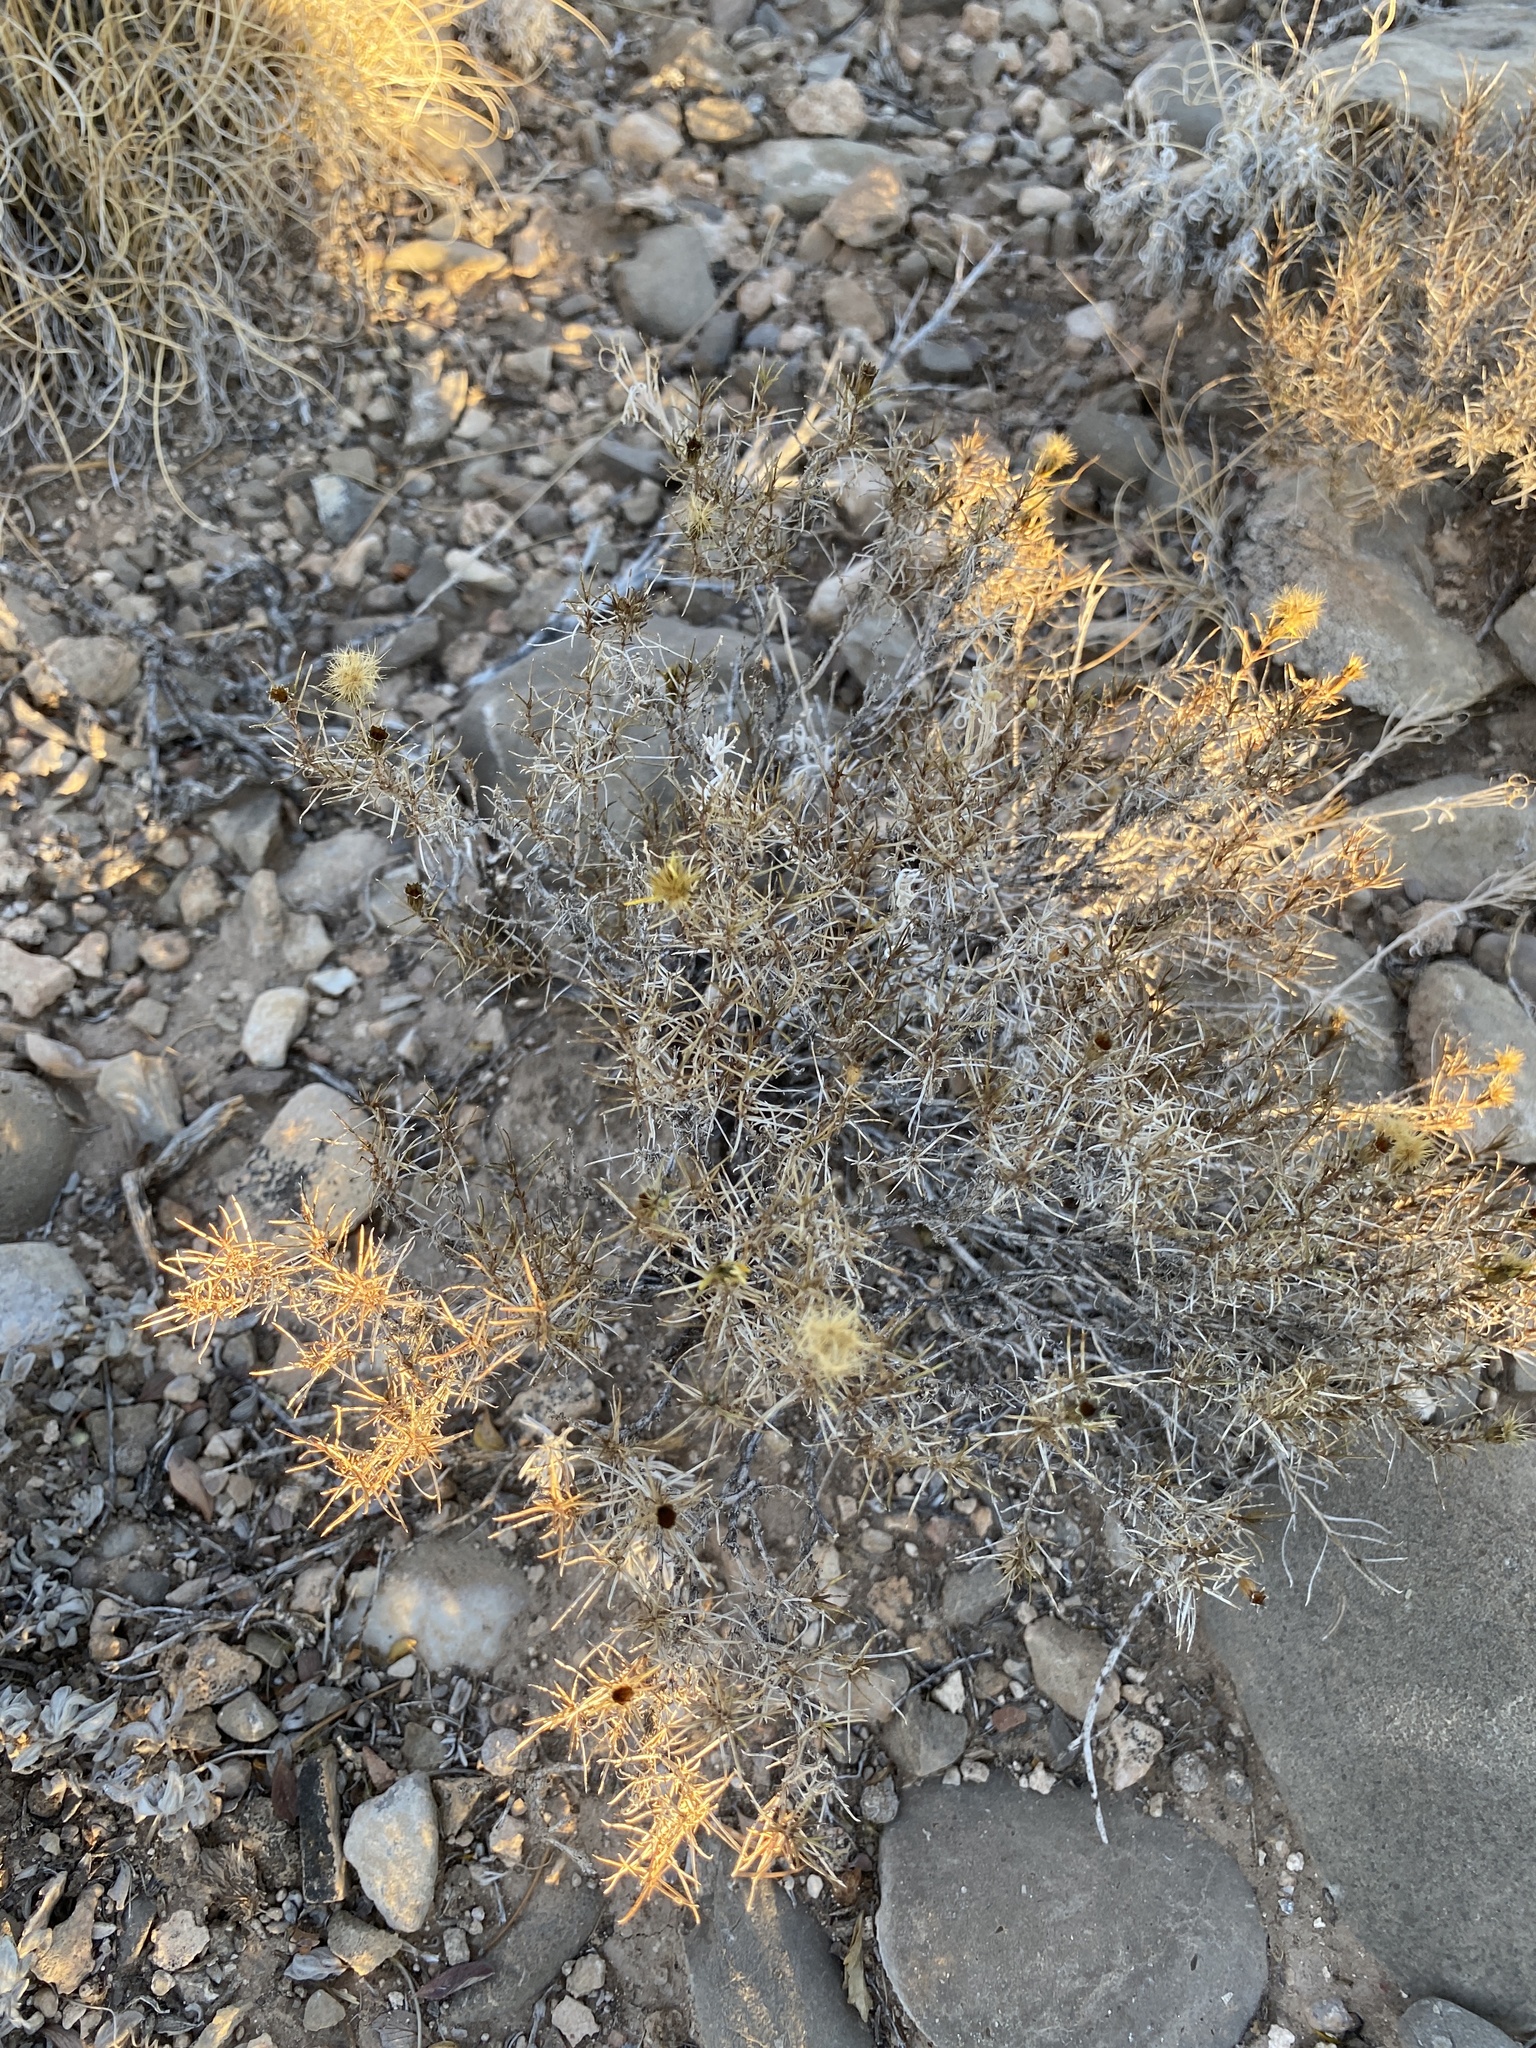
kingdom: Plantae
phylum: Tracheophyta
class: Magnoliopsida
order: Asterales
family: Asteraceae
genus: Thymophylla
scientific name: Thymophylla acerosa
